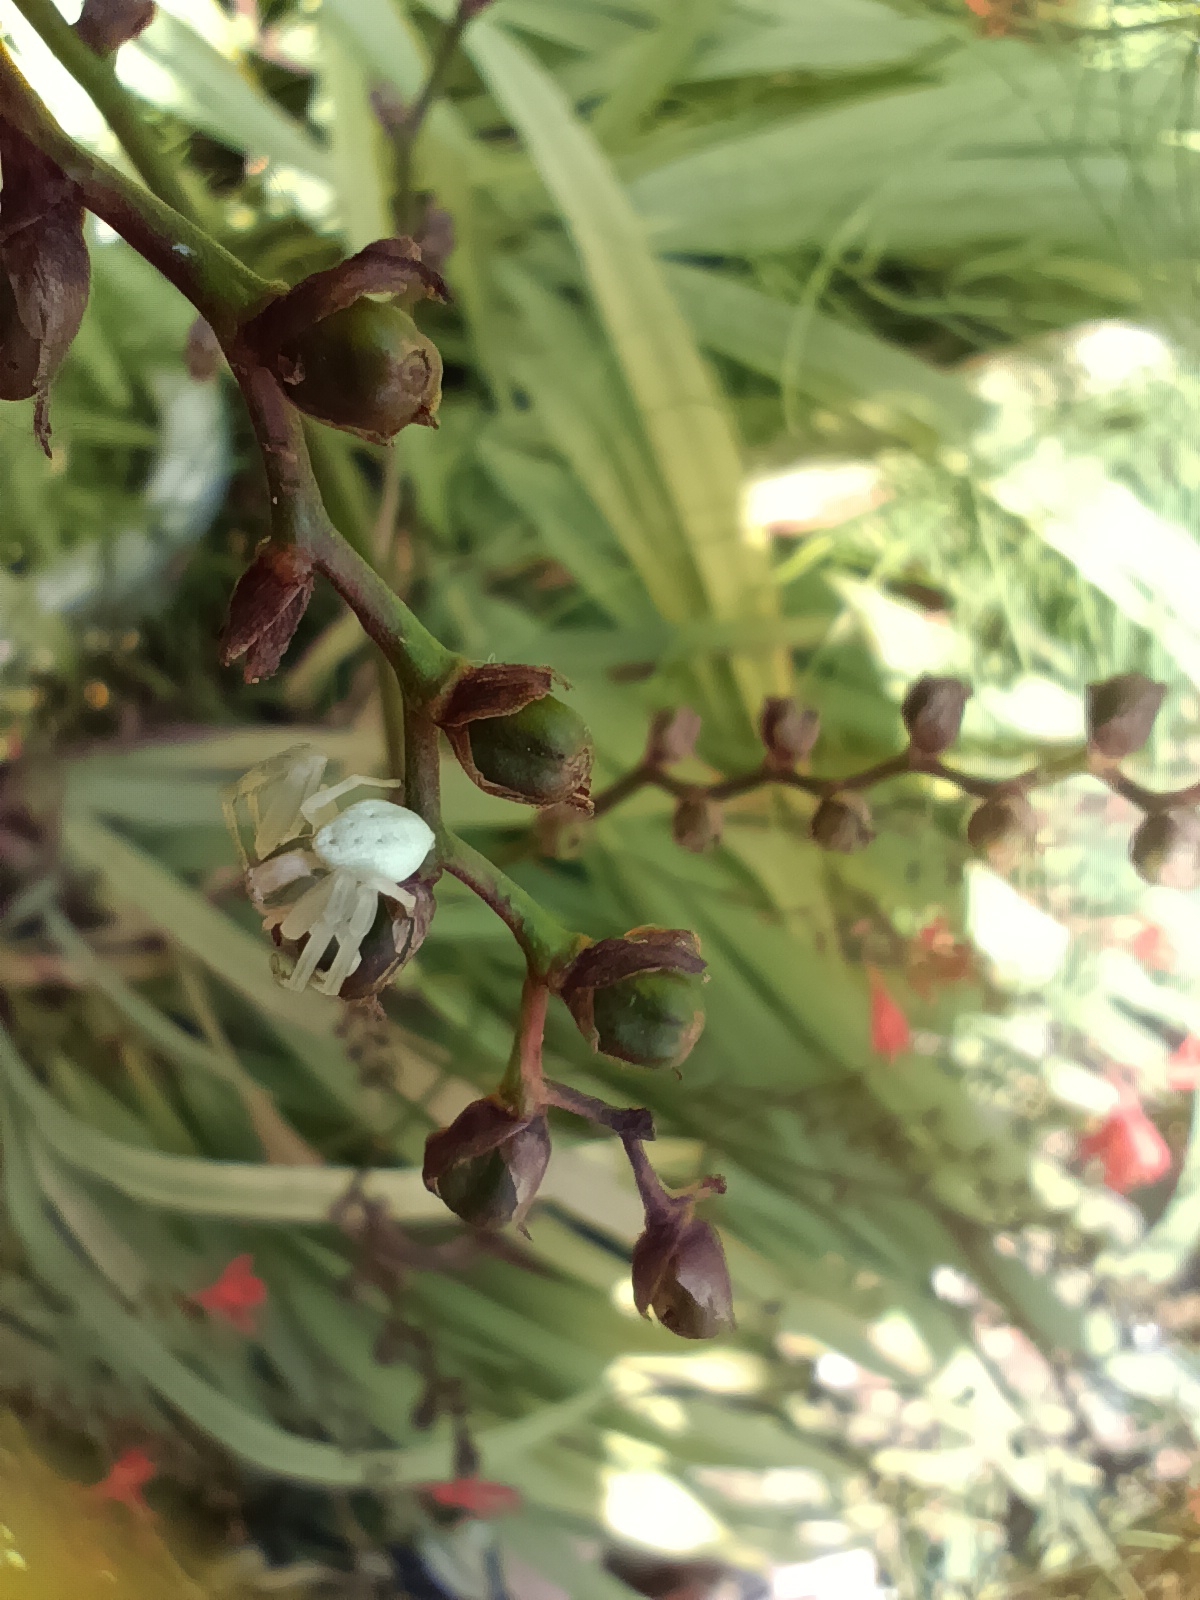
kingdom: Animalia
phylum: Arthropoda
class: Arachnida
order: Araneae
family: Thomisidae
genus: Misumena
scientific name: Misumena vatia
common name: Goldenrod crab spider
